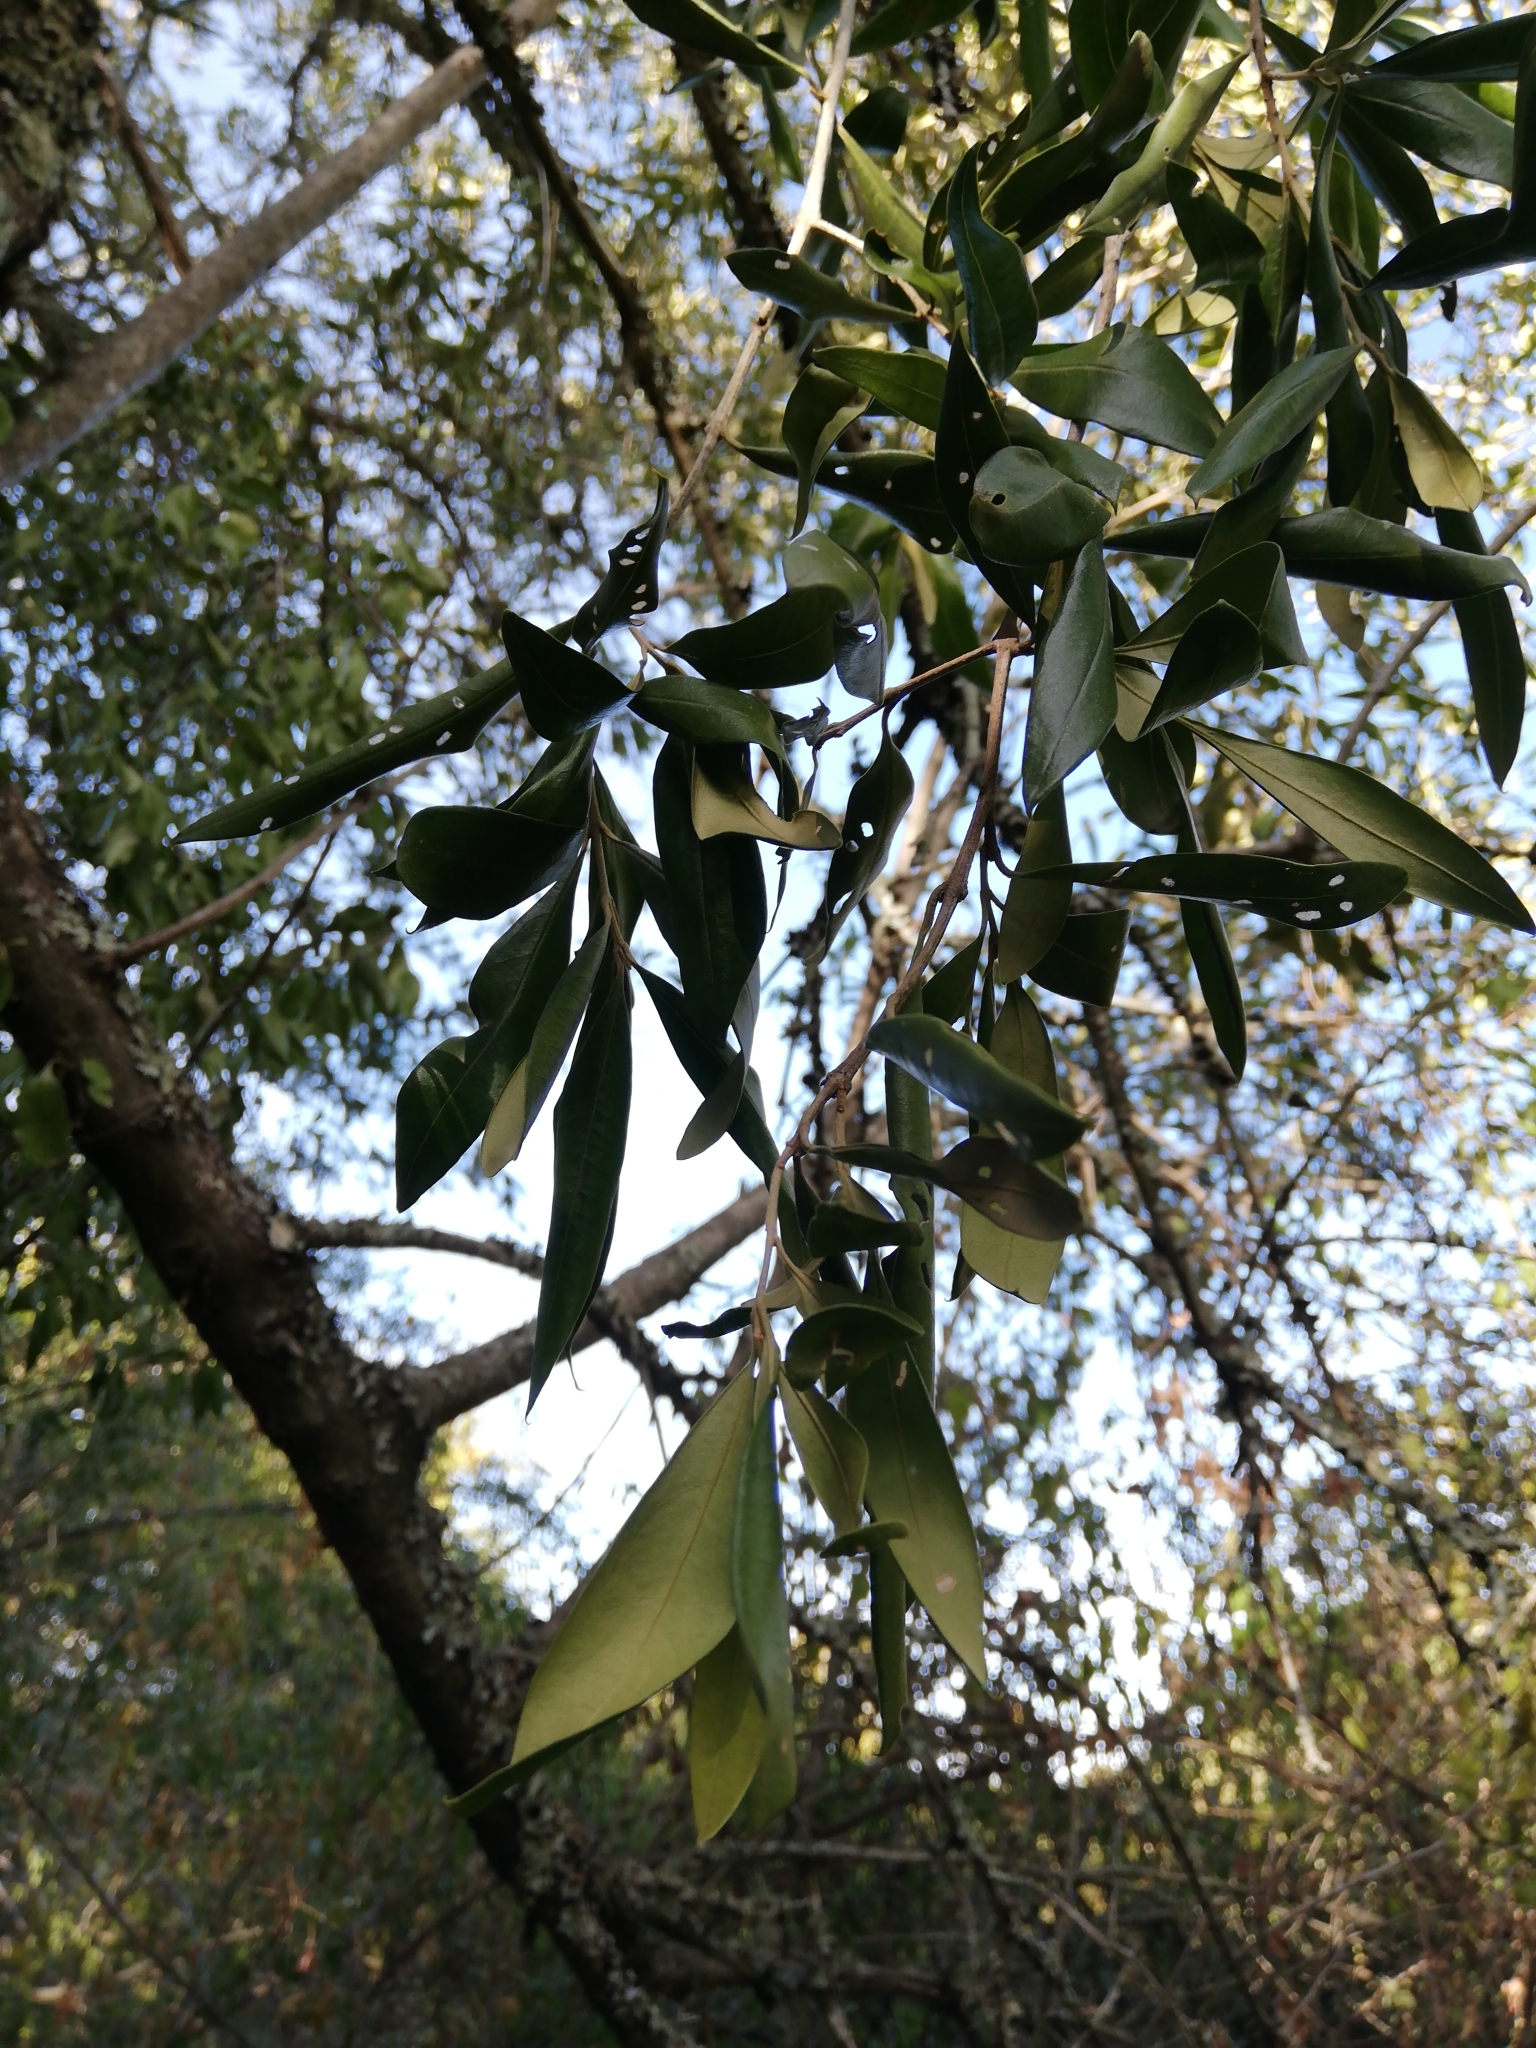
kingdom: Plantae
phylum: Tracheophyta
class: Magnoliopsida
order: Lamiales
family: Oleaceae
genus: Olea
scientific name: Olea europaea
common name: Olive
